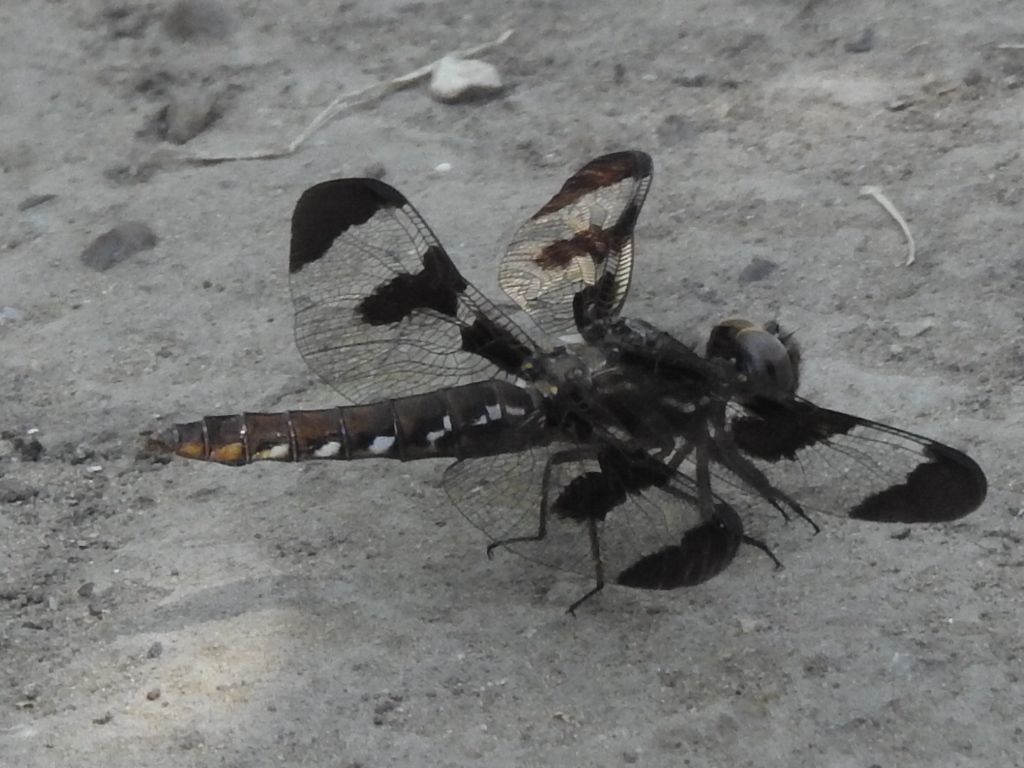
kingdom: Animalia
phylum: Arthropoda
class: Insecta
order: Odonata
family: Libellulidae
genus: Plathemis
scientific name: Plathemis lydia
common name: Common whitetail
